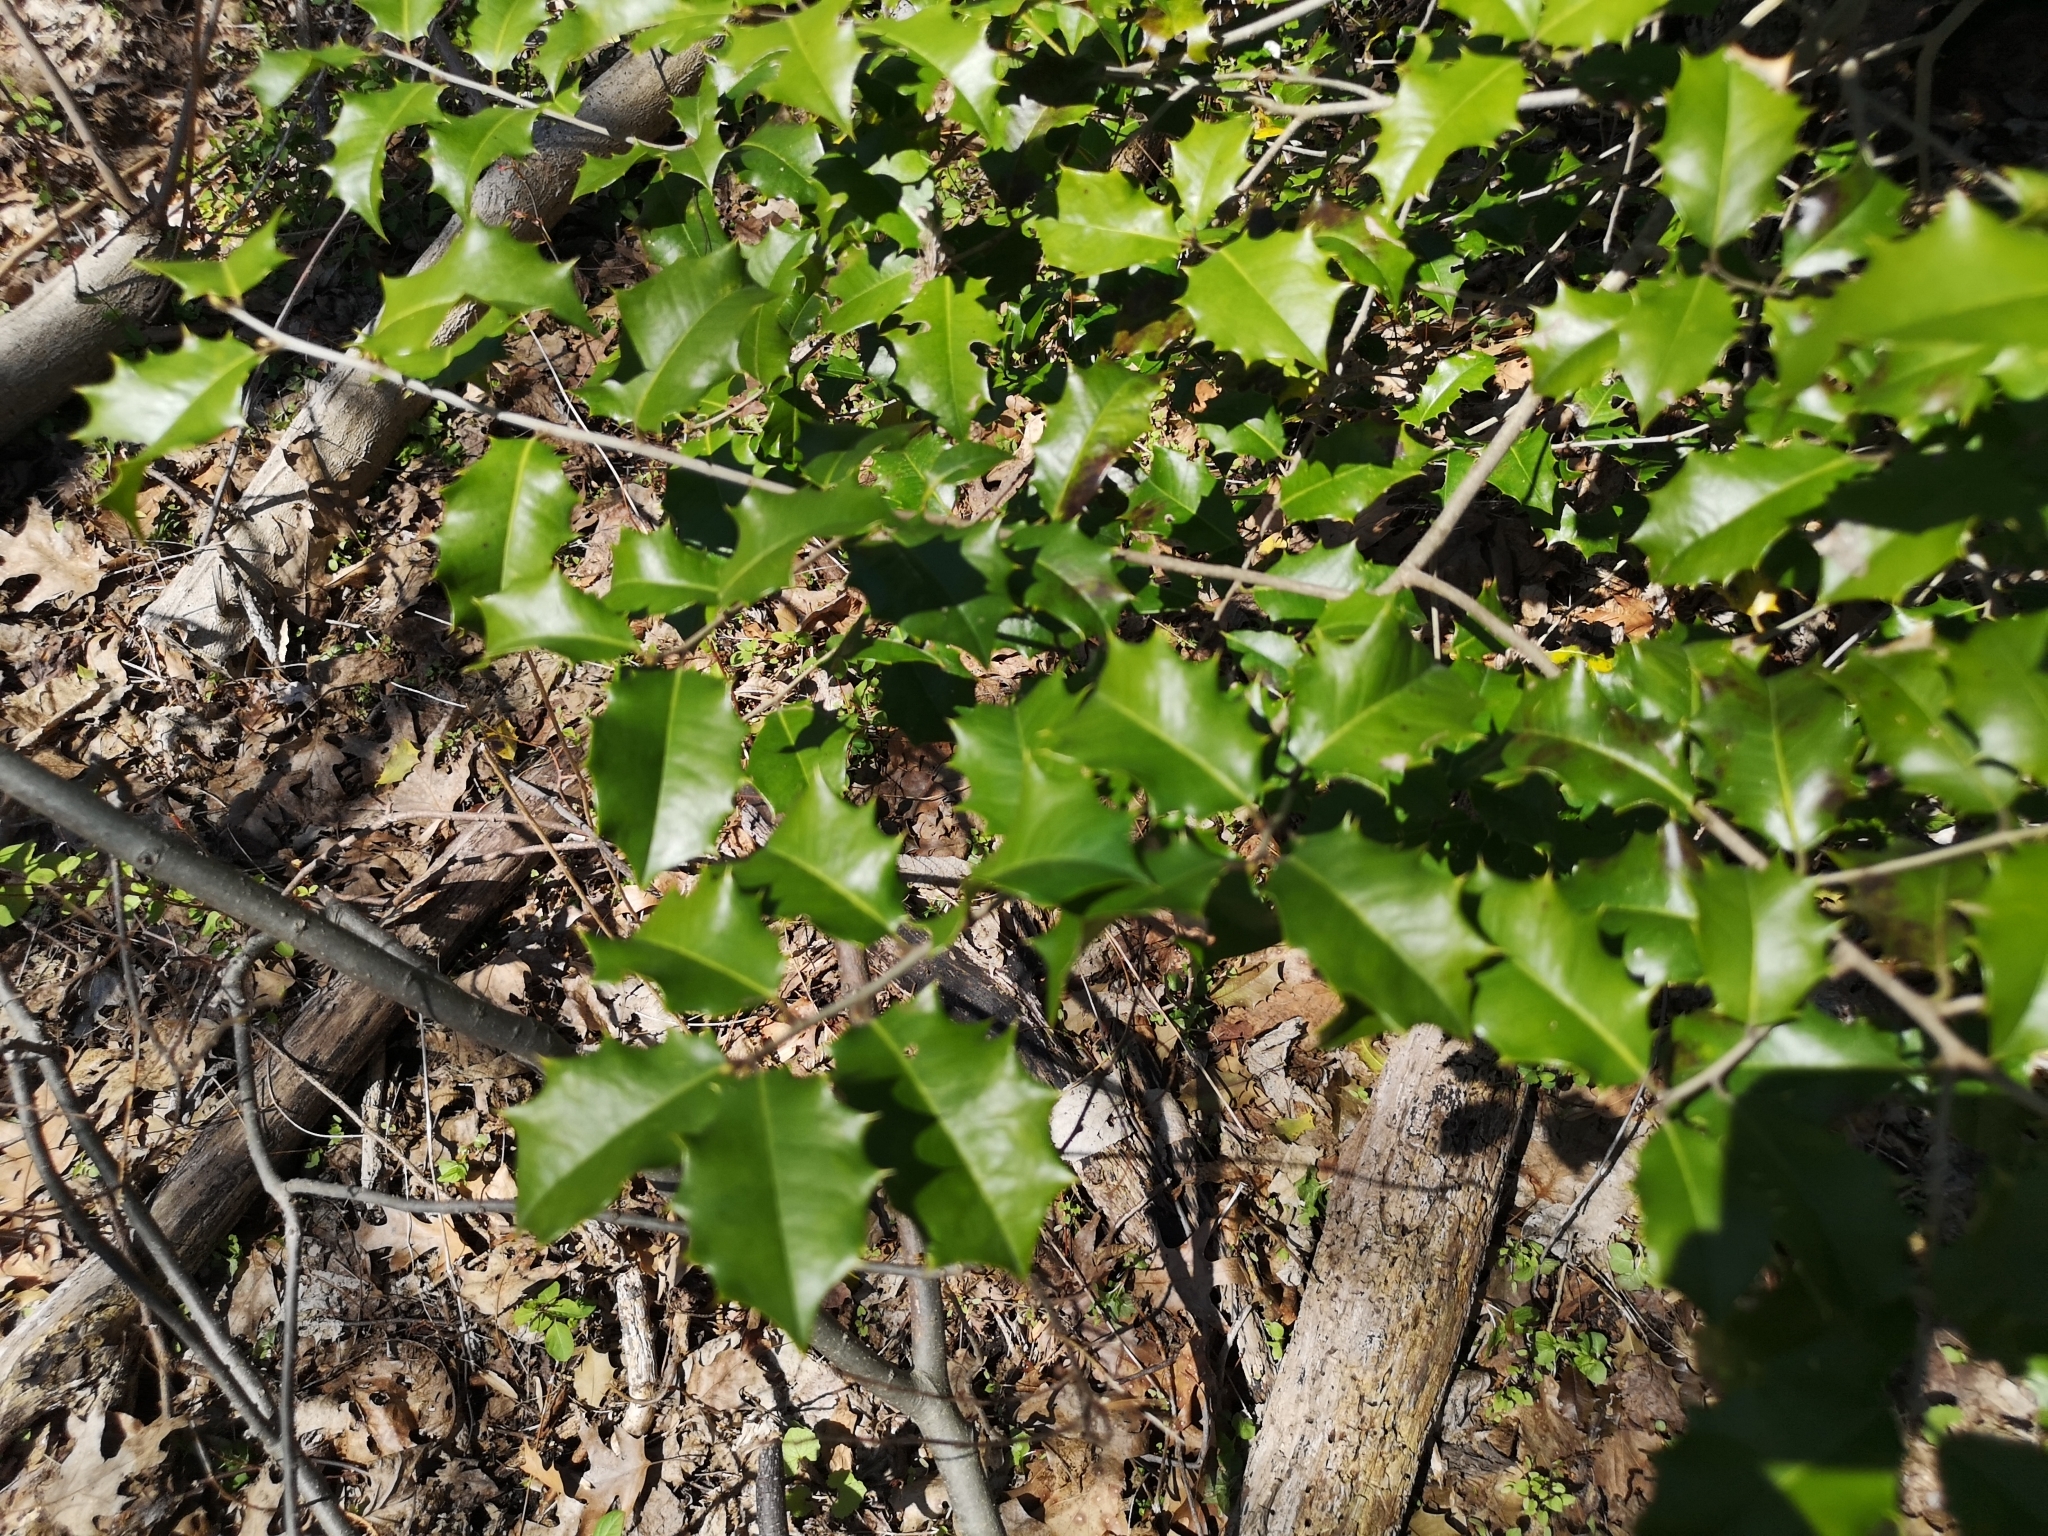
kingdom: Plantae
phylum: Tracheophyta
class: Magnoliopsida
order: Aquifoliales
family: Aquifoliaceae
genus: Ilex
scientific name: Ilex opaca
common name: American holly
